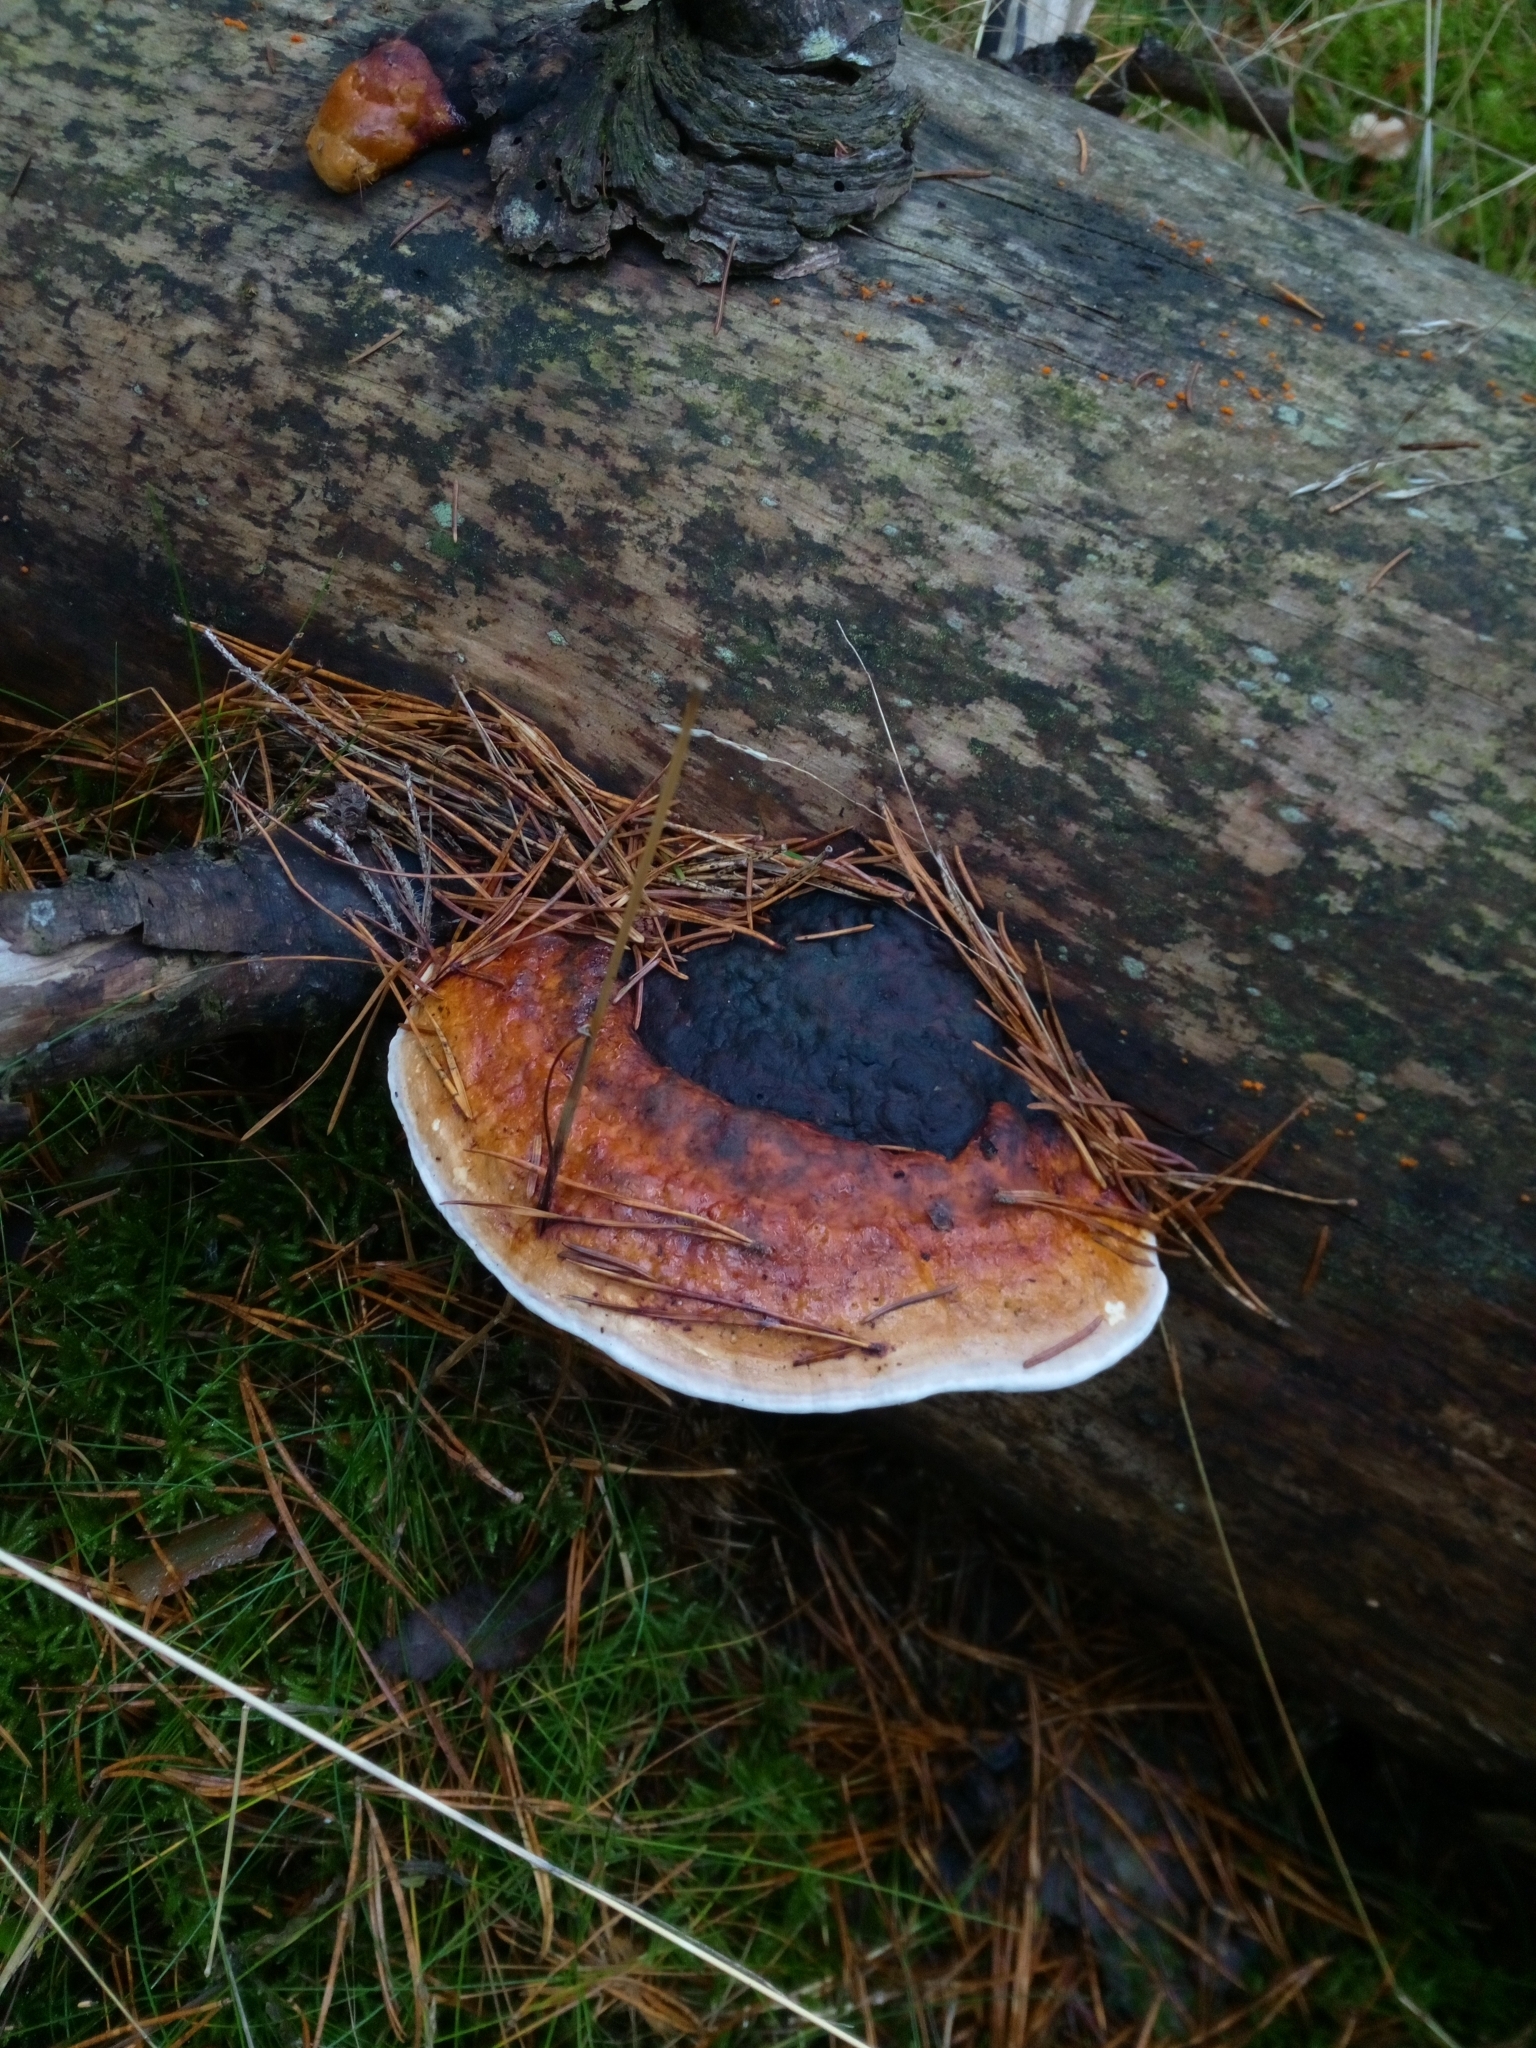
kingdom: Fungi
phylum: Basidiomycota
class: Agaricomycetes
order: Polyporales
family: Fomitopsidaceae
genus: Fomitopsis
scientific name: Fomitopsis pinicola
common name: Red-belted bracket
